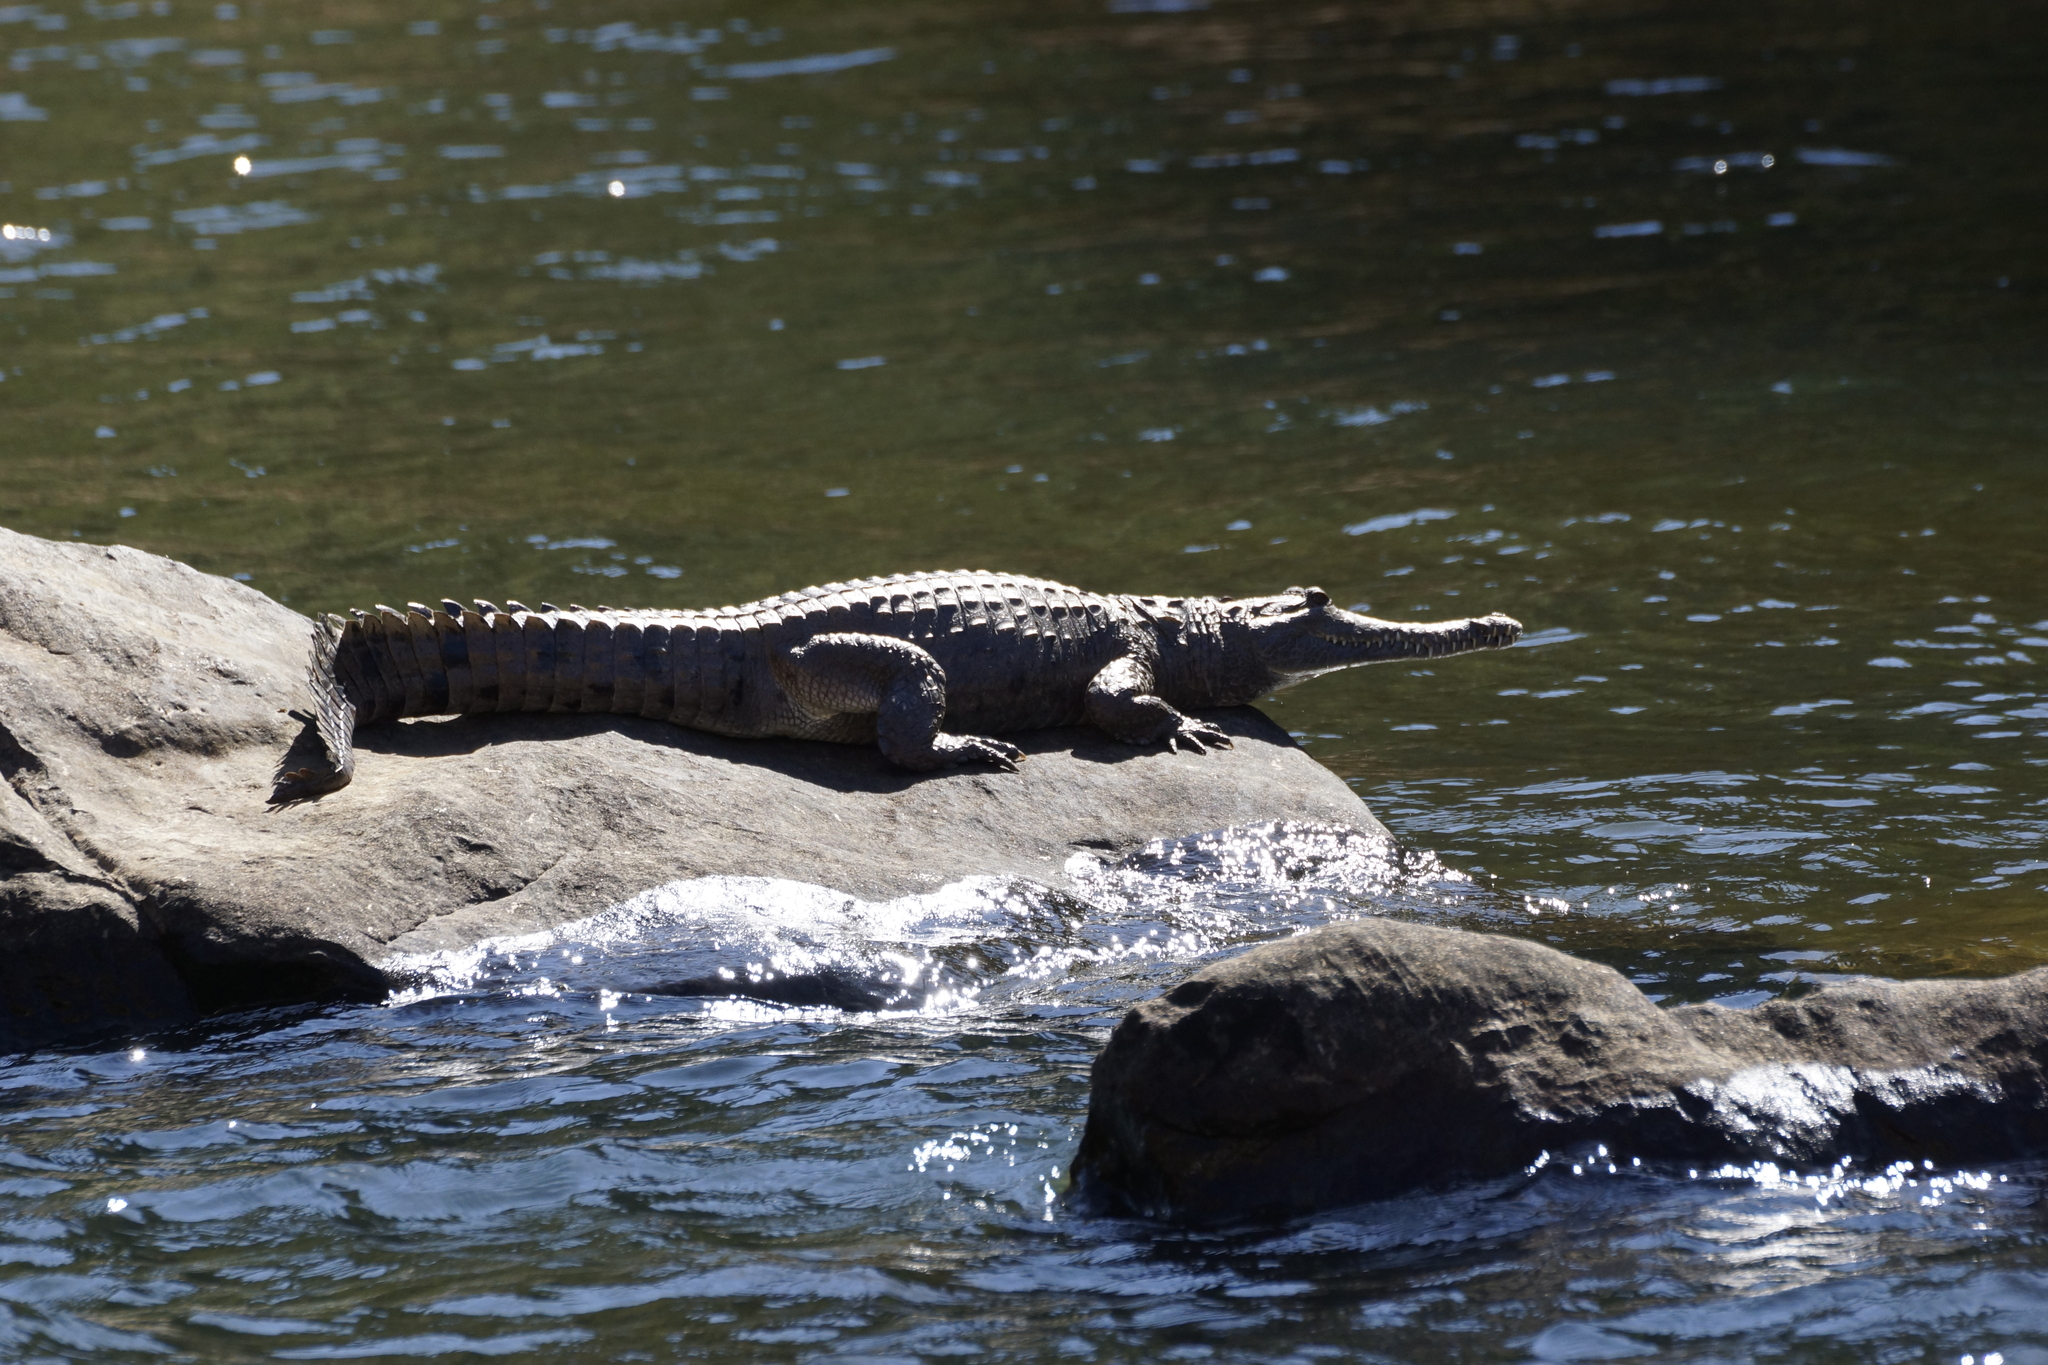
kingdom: Animalia
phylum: Chordata
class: Crocodylia
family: Crocodylidae
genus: Crocodylus
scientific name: Crocodylus johnsoni
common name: Freshwater crocodile
